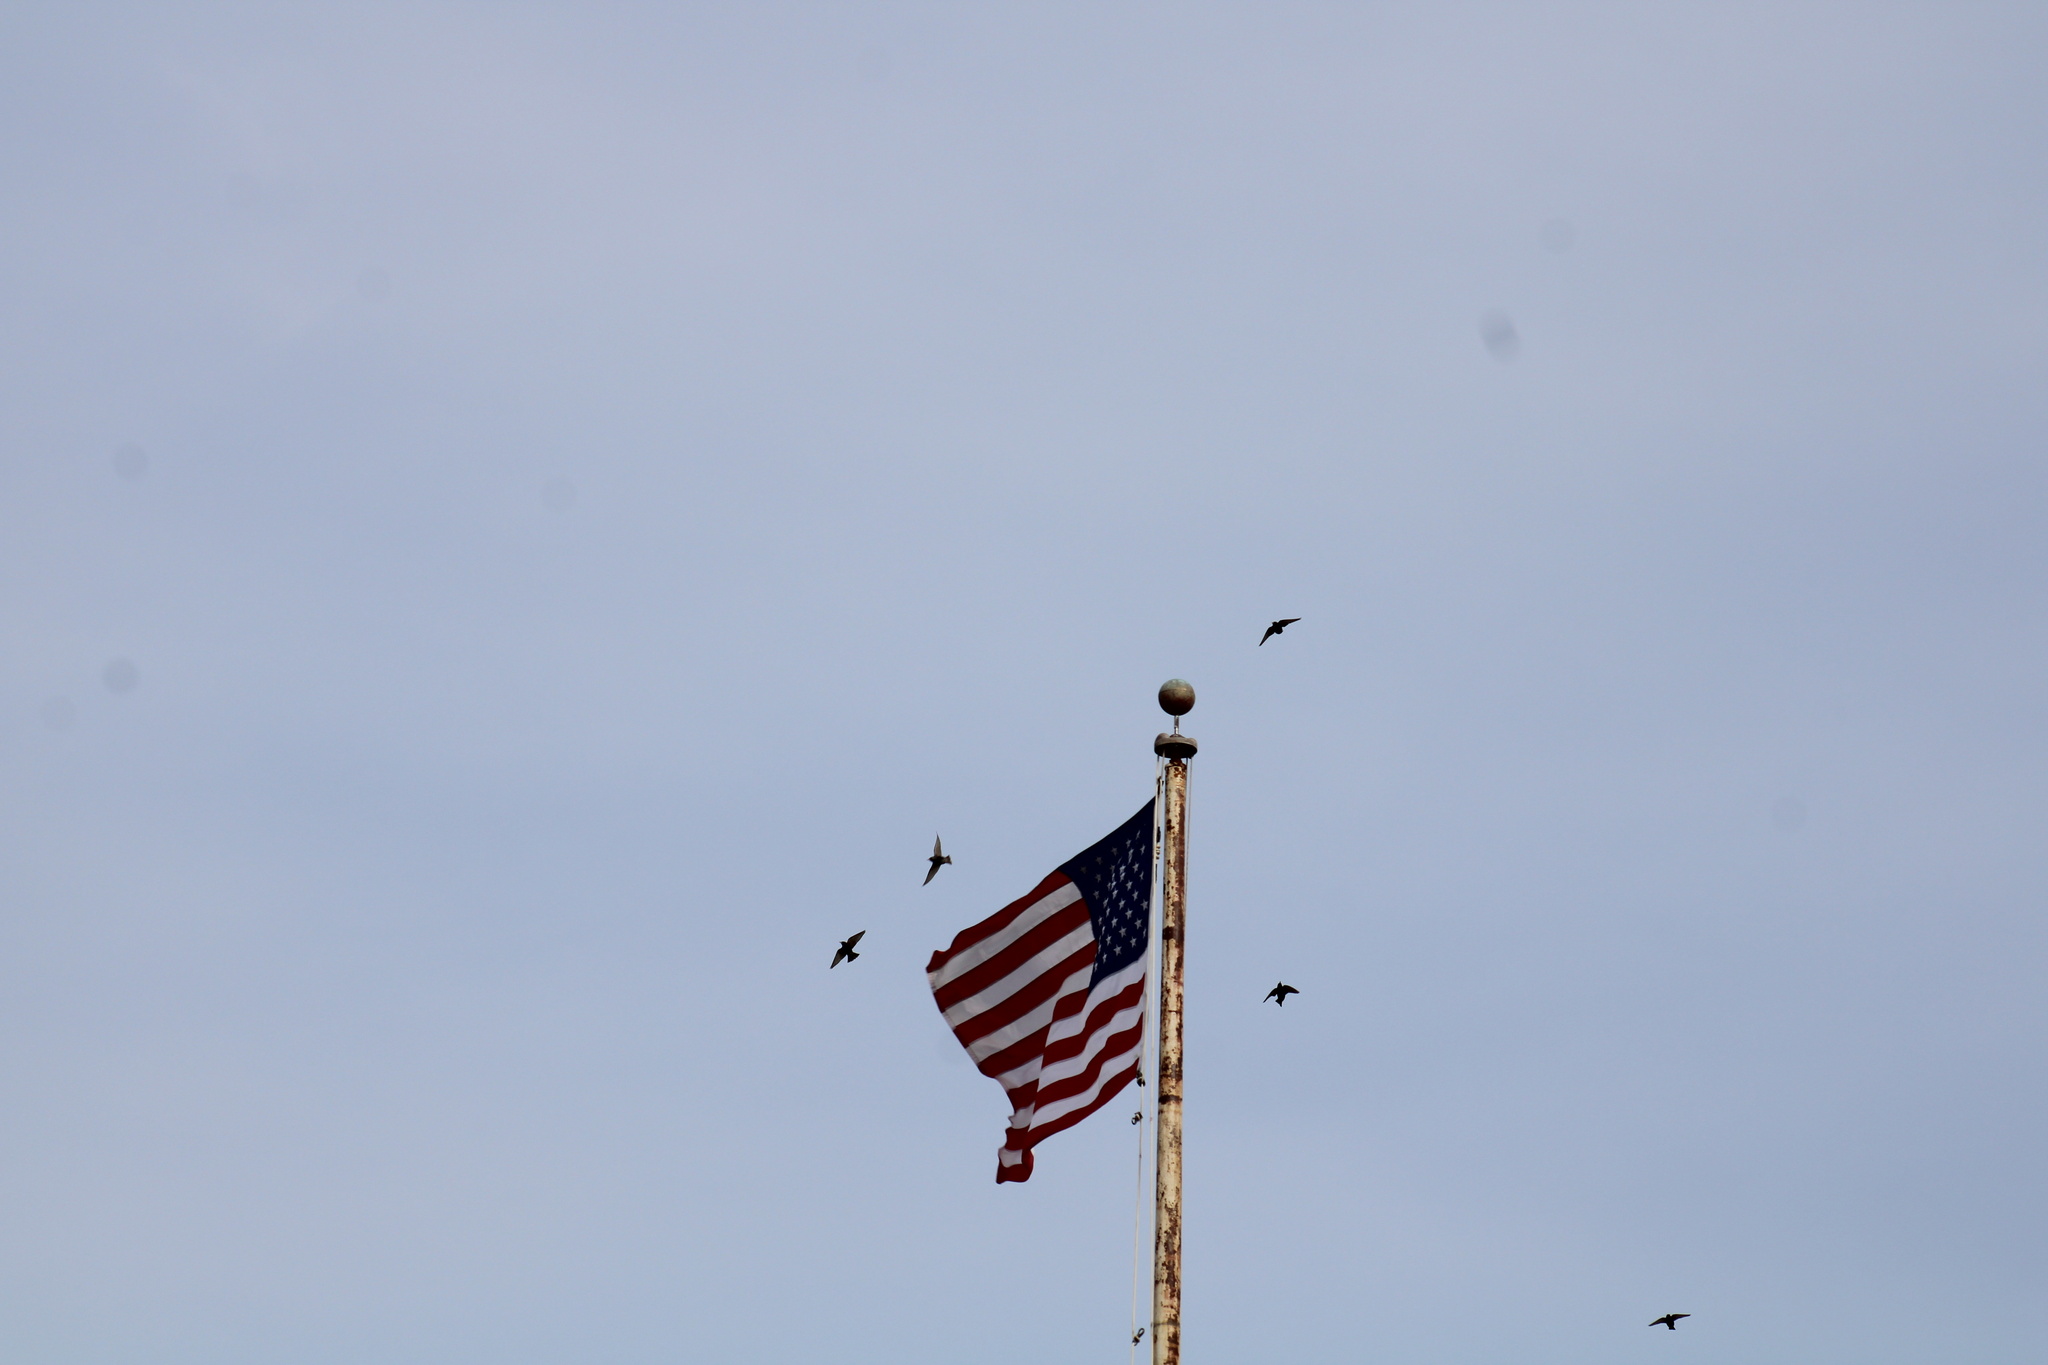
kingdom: Animalia
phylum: Chordata
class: Aves
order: Passeriformes
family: Sturnidae
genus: Sturnus
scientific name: Sturnus vulgaris
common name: Common starling
